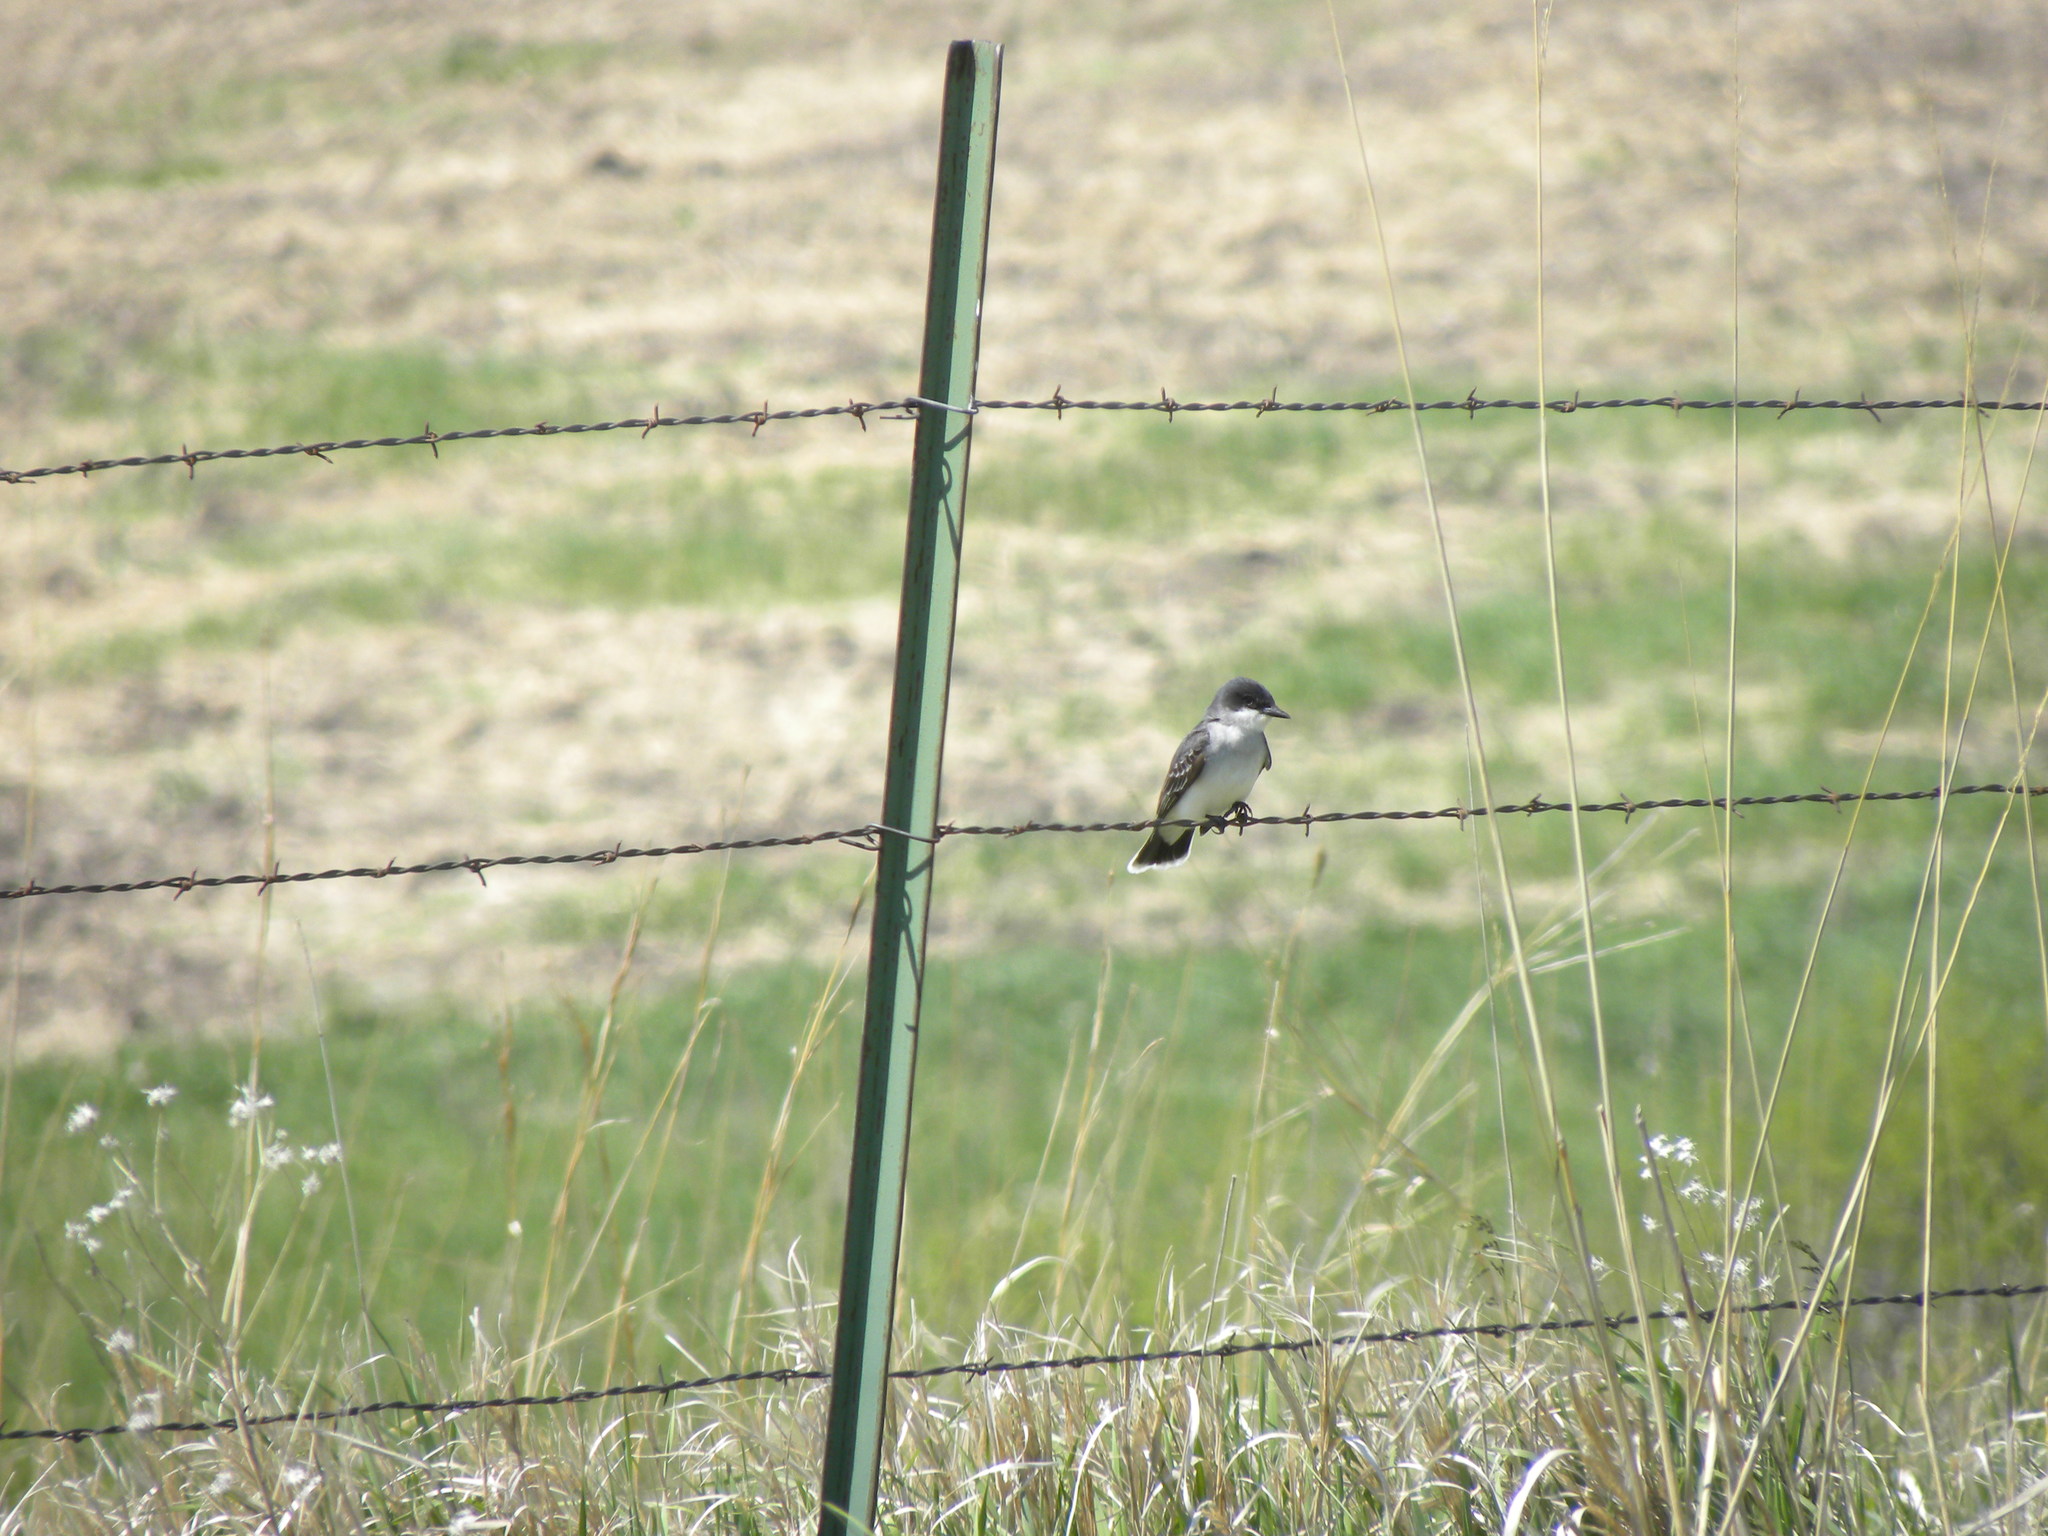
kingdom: Animalia
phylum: Chordata
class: Aves
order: Passeriformes
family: Tyrannidae
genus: Tyrannus
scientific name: Tyrannus tyrannus
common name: Eastern kingbird
